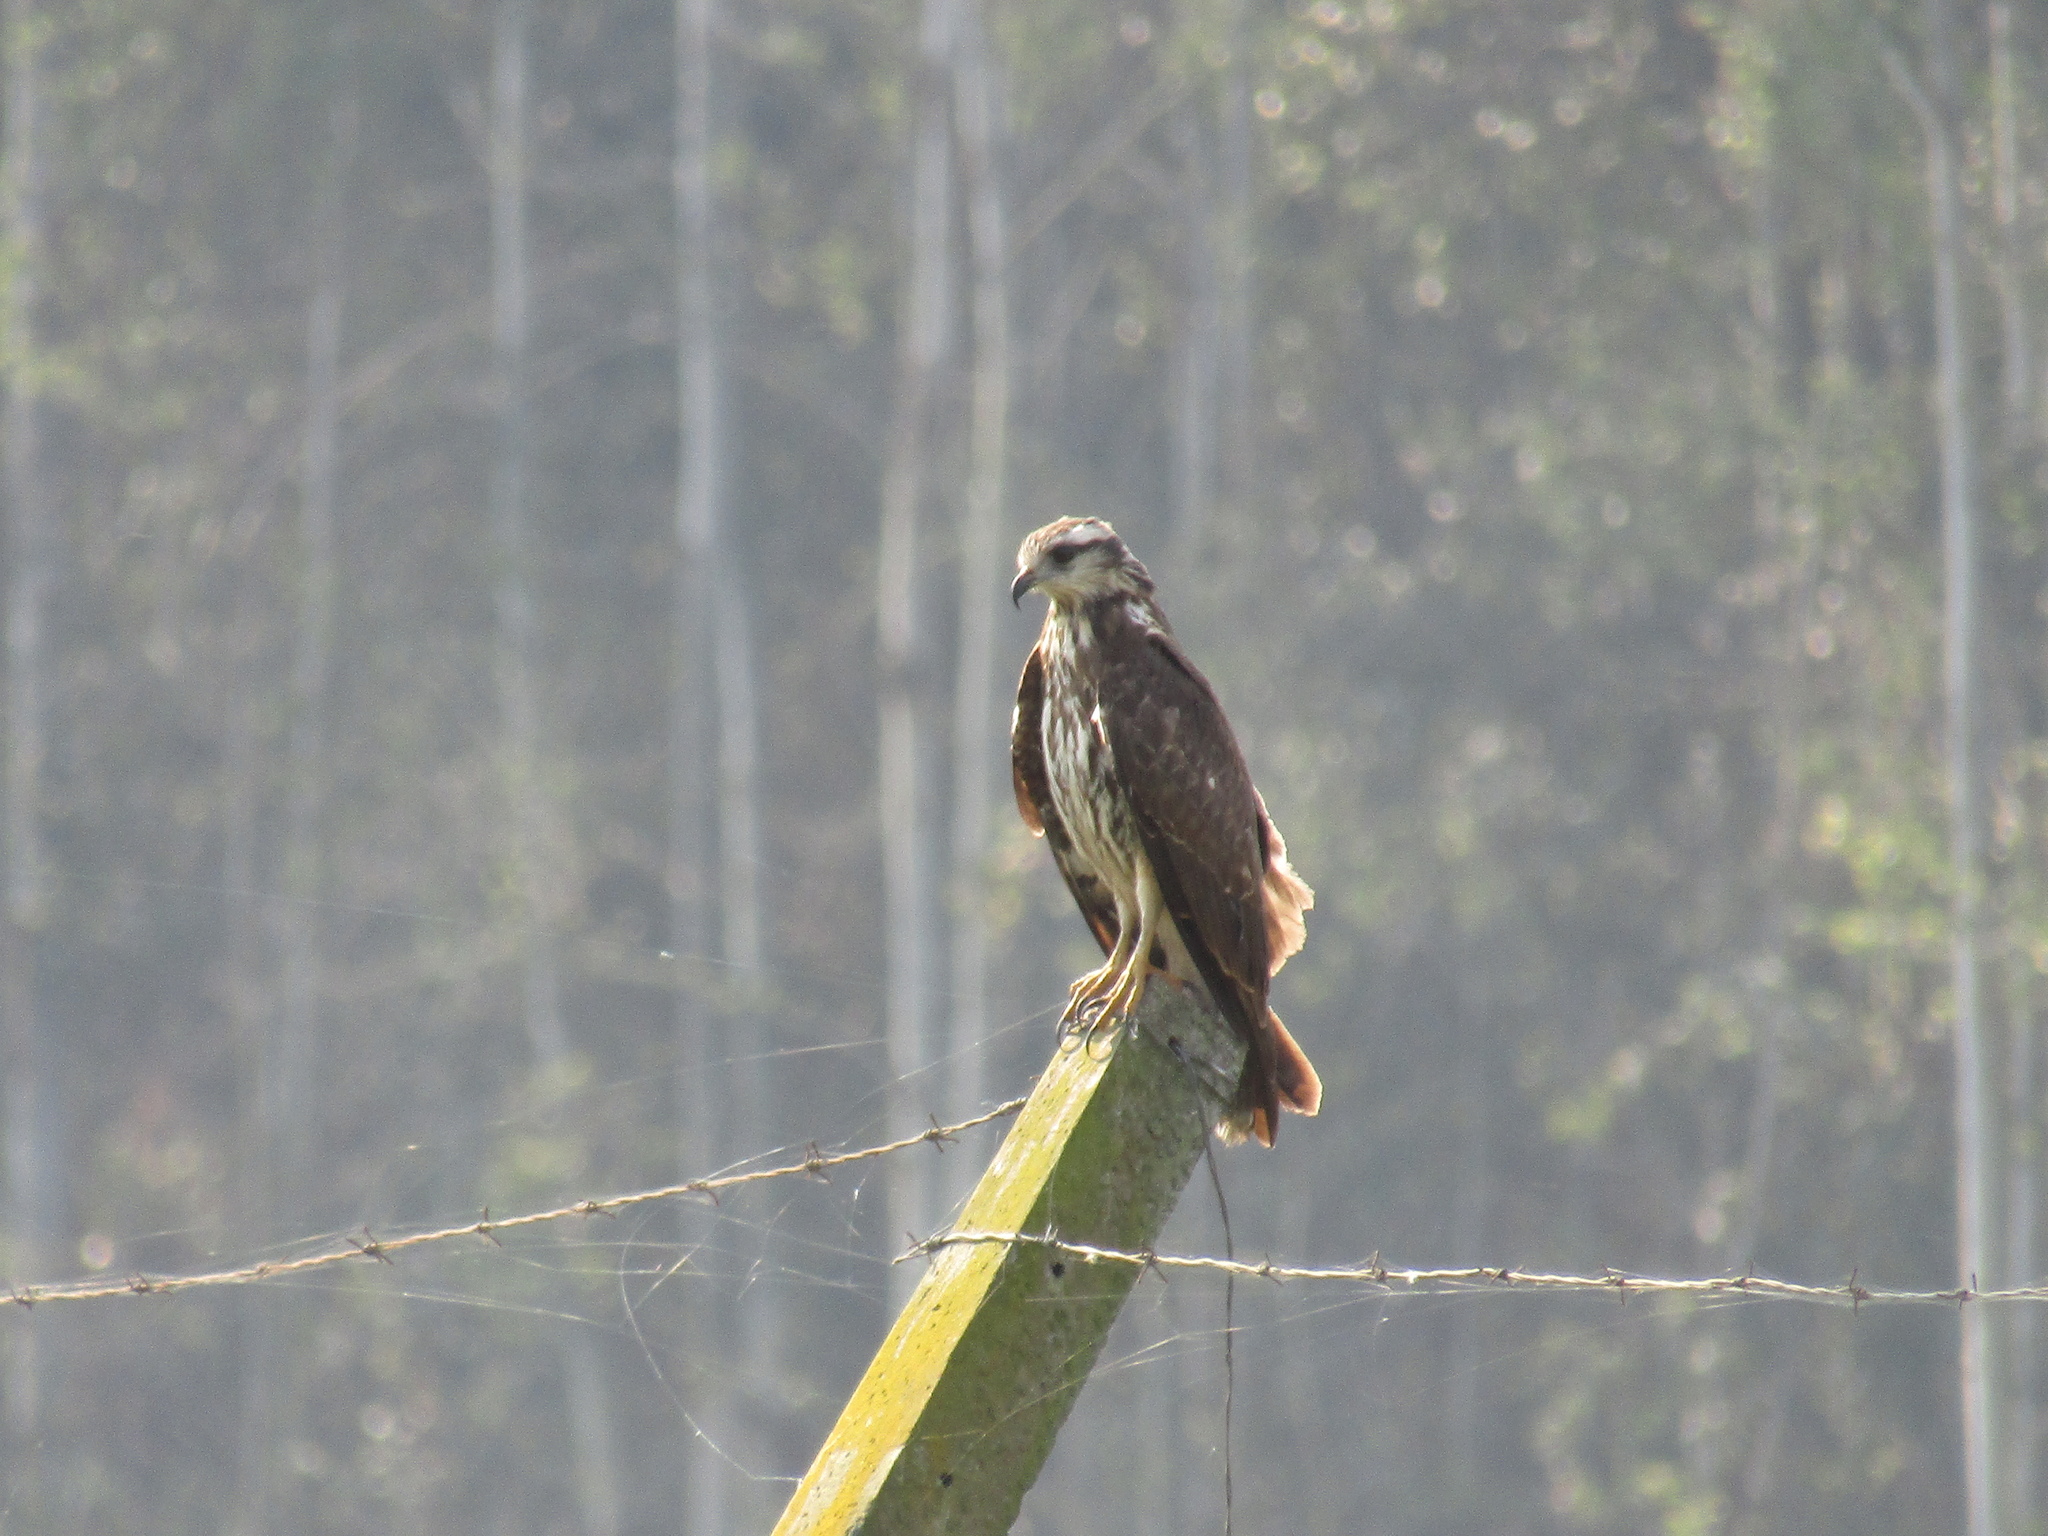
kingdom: Animalia
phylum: Chordata
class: Aves
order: Accipitriformes
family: Accipitridae
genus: Rostrhamus
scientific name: Rostrhamus sociabilis
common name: Snail kite
